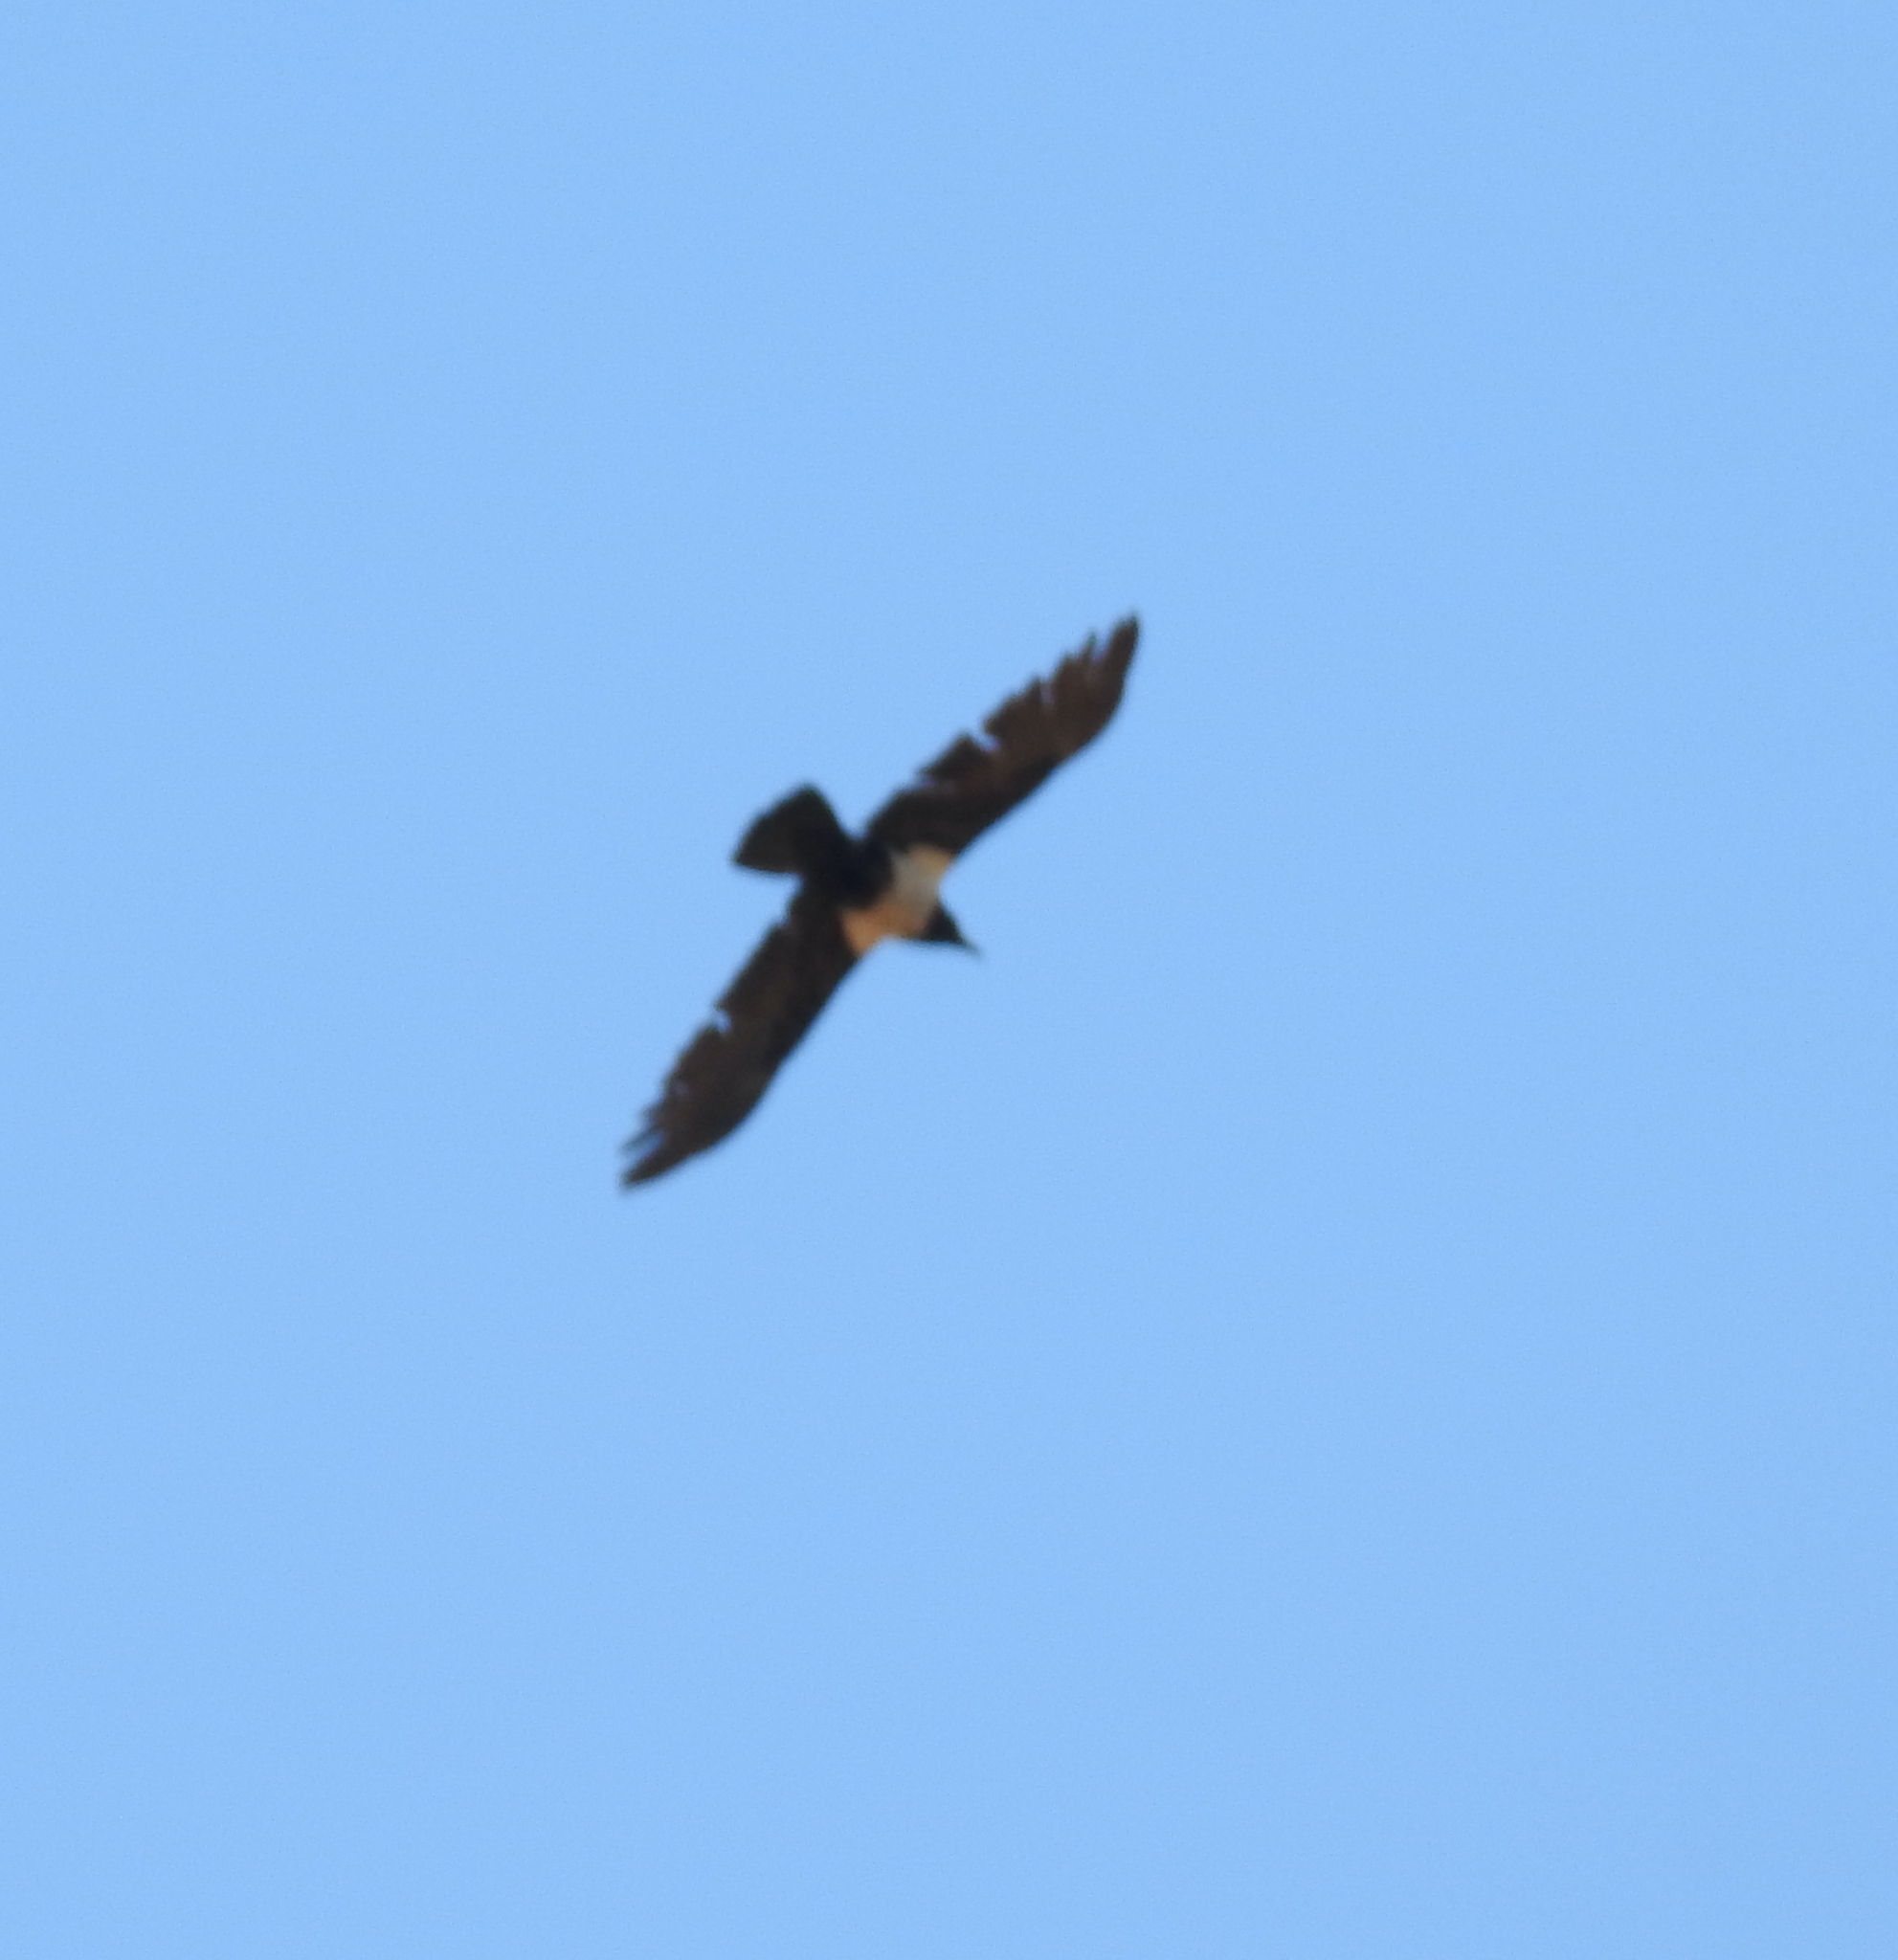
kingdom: Animalia
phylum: Chordata
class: Aves
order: Passeriformes
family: Corvidae
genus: Corvus
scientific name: Corvus albus
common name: Pied crow
